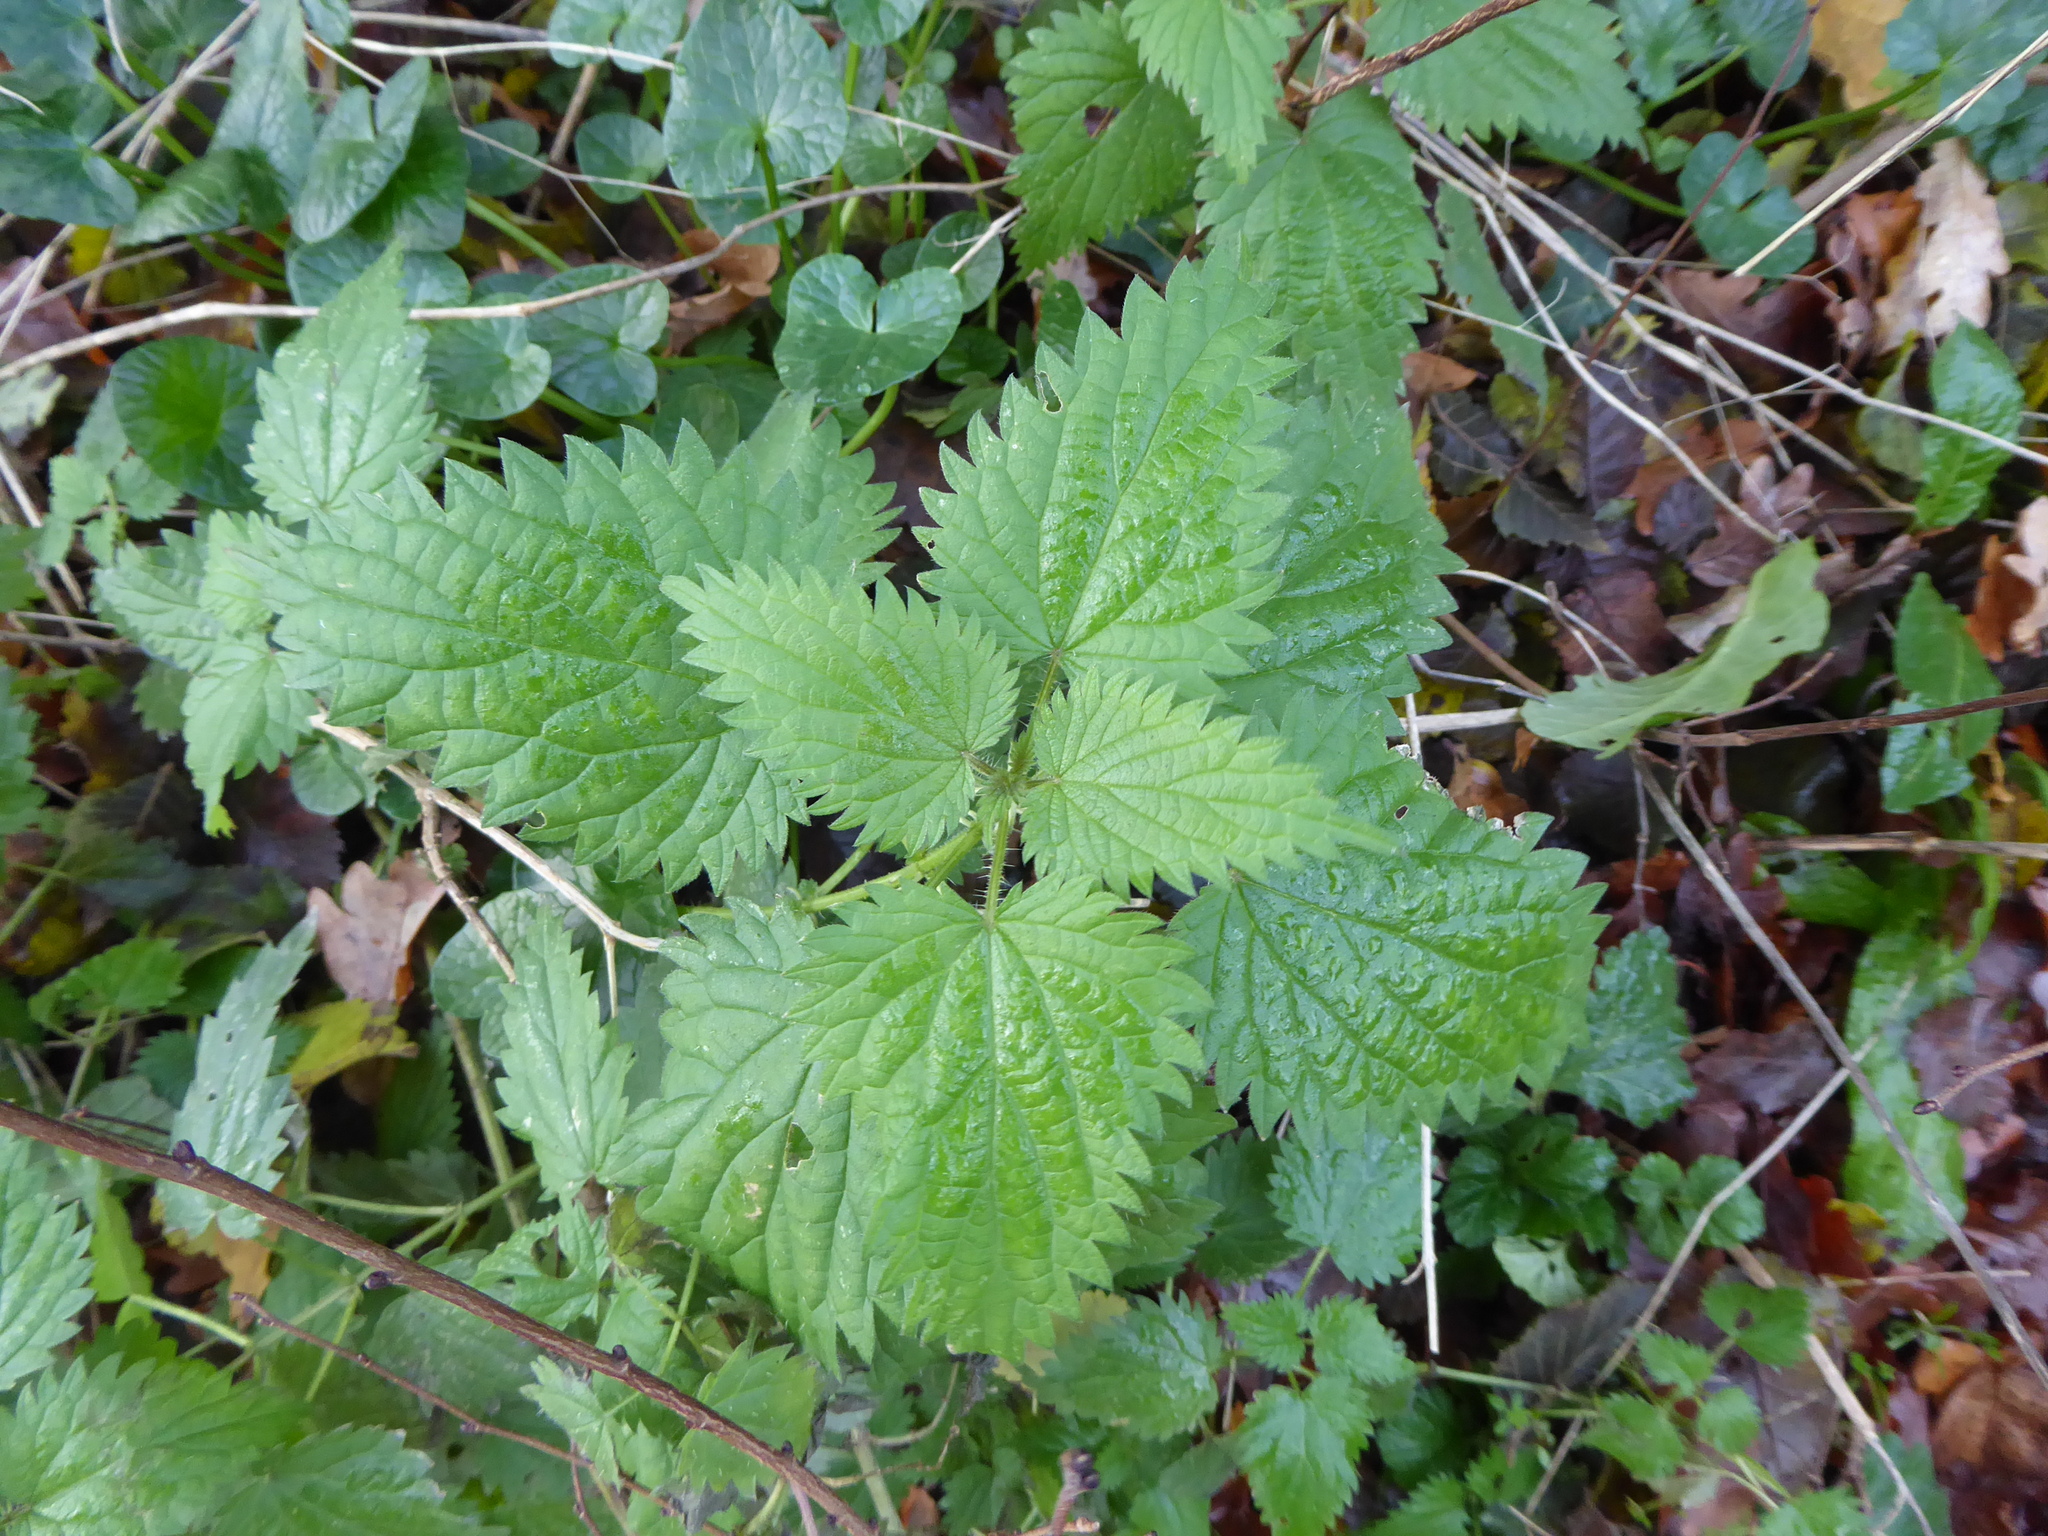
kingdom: Plantae
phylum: Tracheophyta
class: Magnoliopsida
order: Rosales
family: Urticaceae
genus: Urtica
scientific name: Urtica dioica
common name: Common nettle
